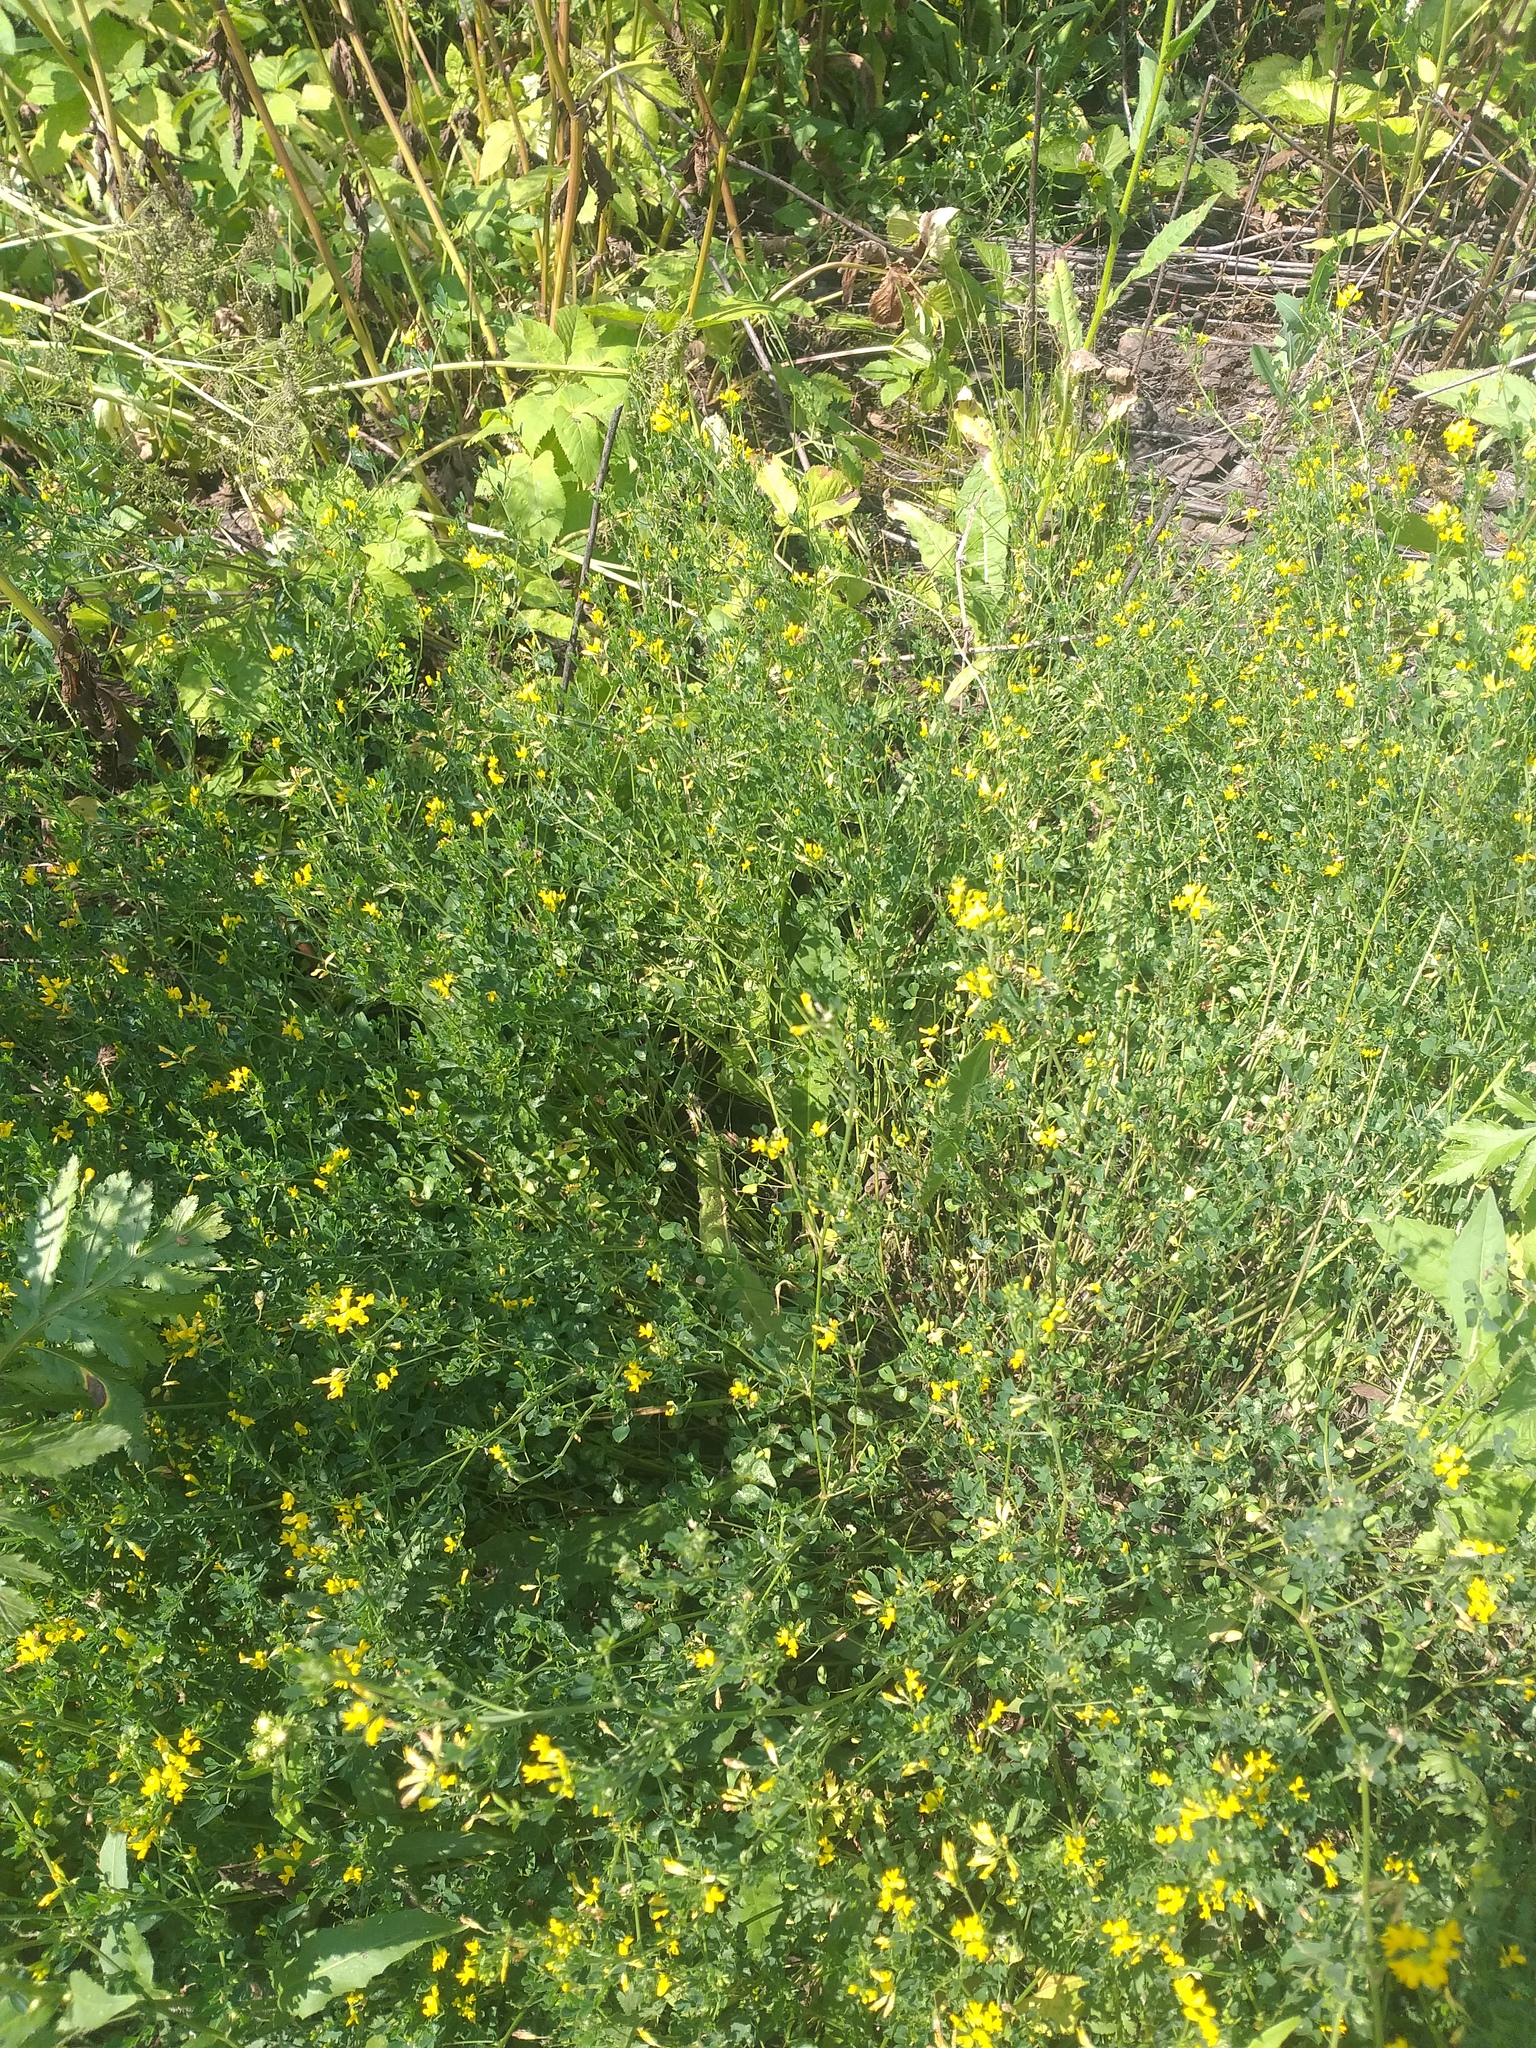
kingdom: Plantae
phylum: Tracheophyta
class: Magnoliopsida
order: Fabales
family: Fabaceae
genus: Medicago
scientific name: Medicago falcata
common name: Sickle medick
